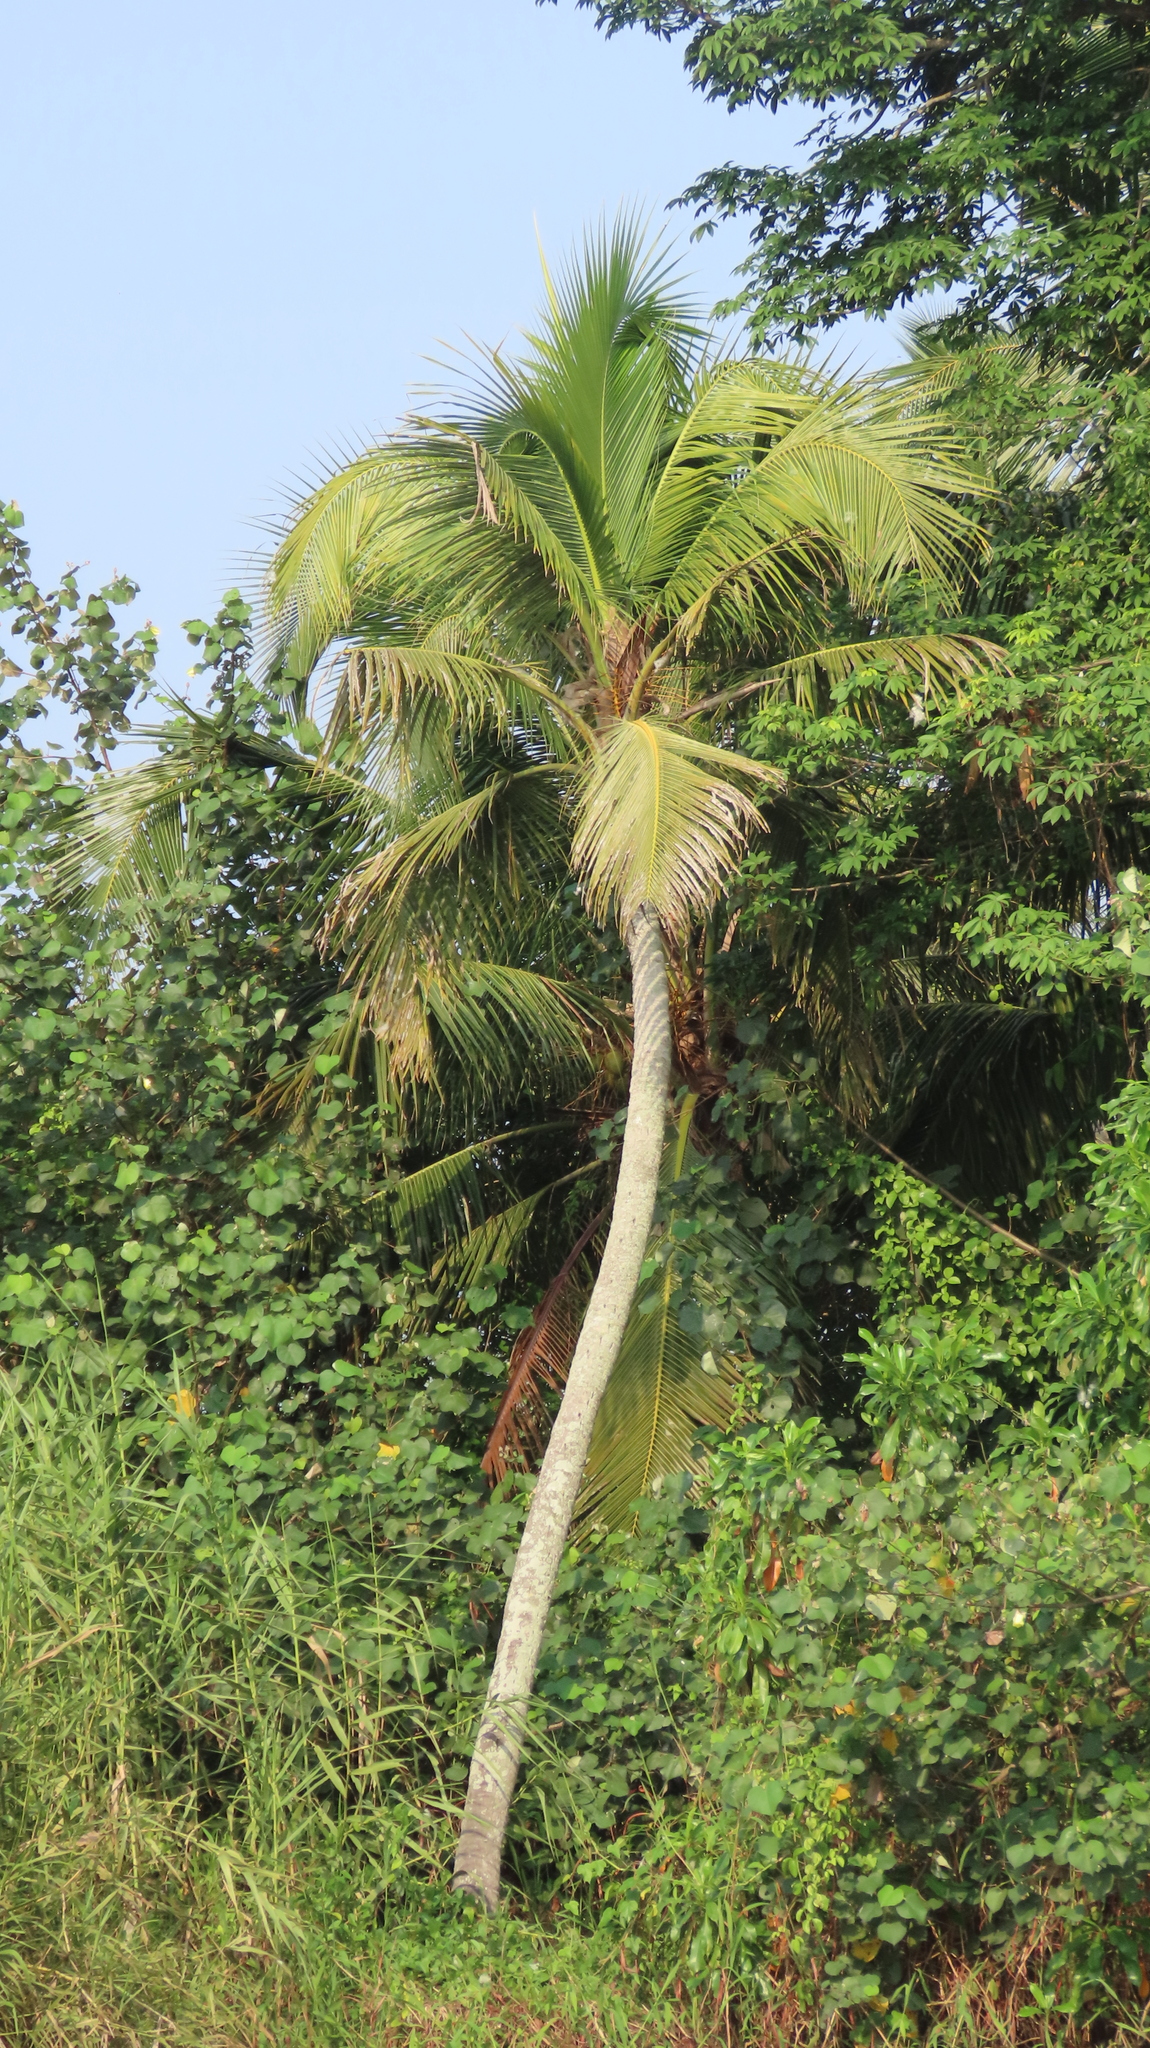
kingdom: Plantae
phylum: Tracheophyta
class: Liliopsida
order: Arecales
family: Arecaceae
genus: Cocos
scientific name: Cocos nucifera
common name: Coconut palm
